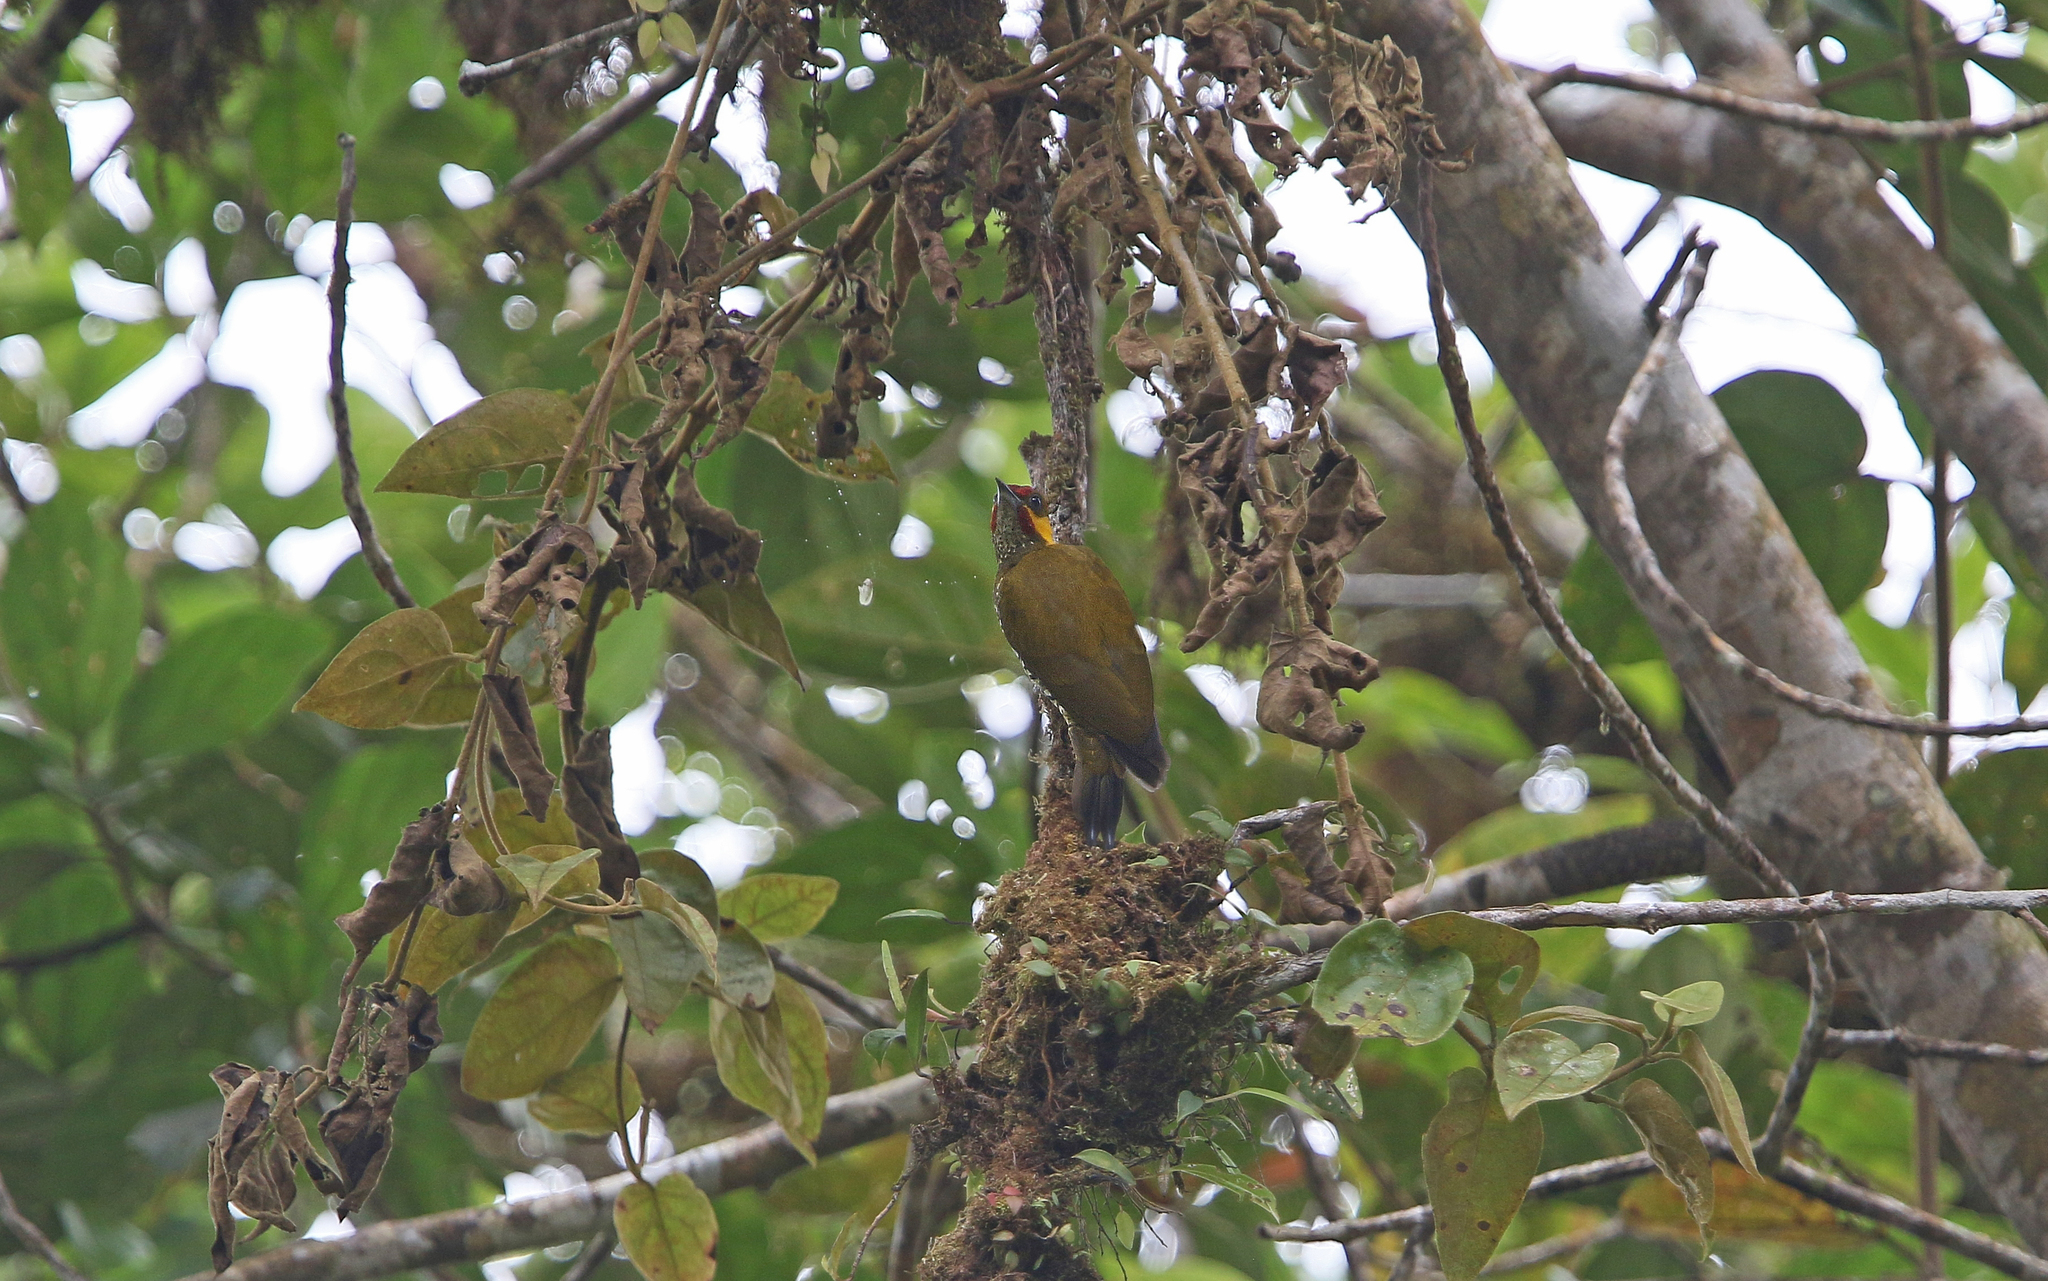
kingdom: Animalia
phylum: Chordata
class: Aves
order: Piciformes
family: Picidae
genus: Piculus
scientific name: Piculus litae
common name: Lita woodpecker
